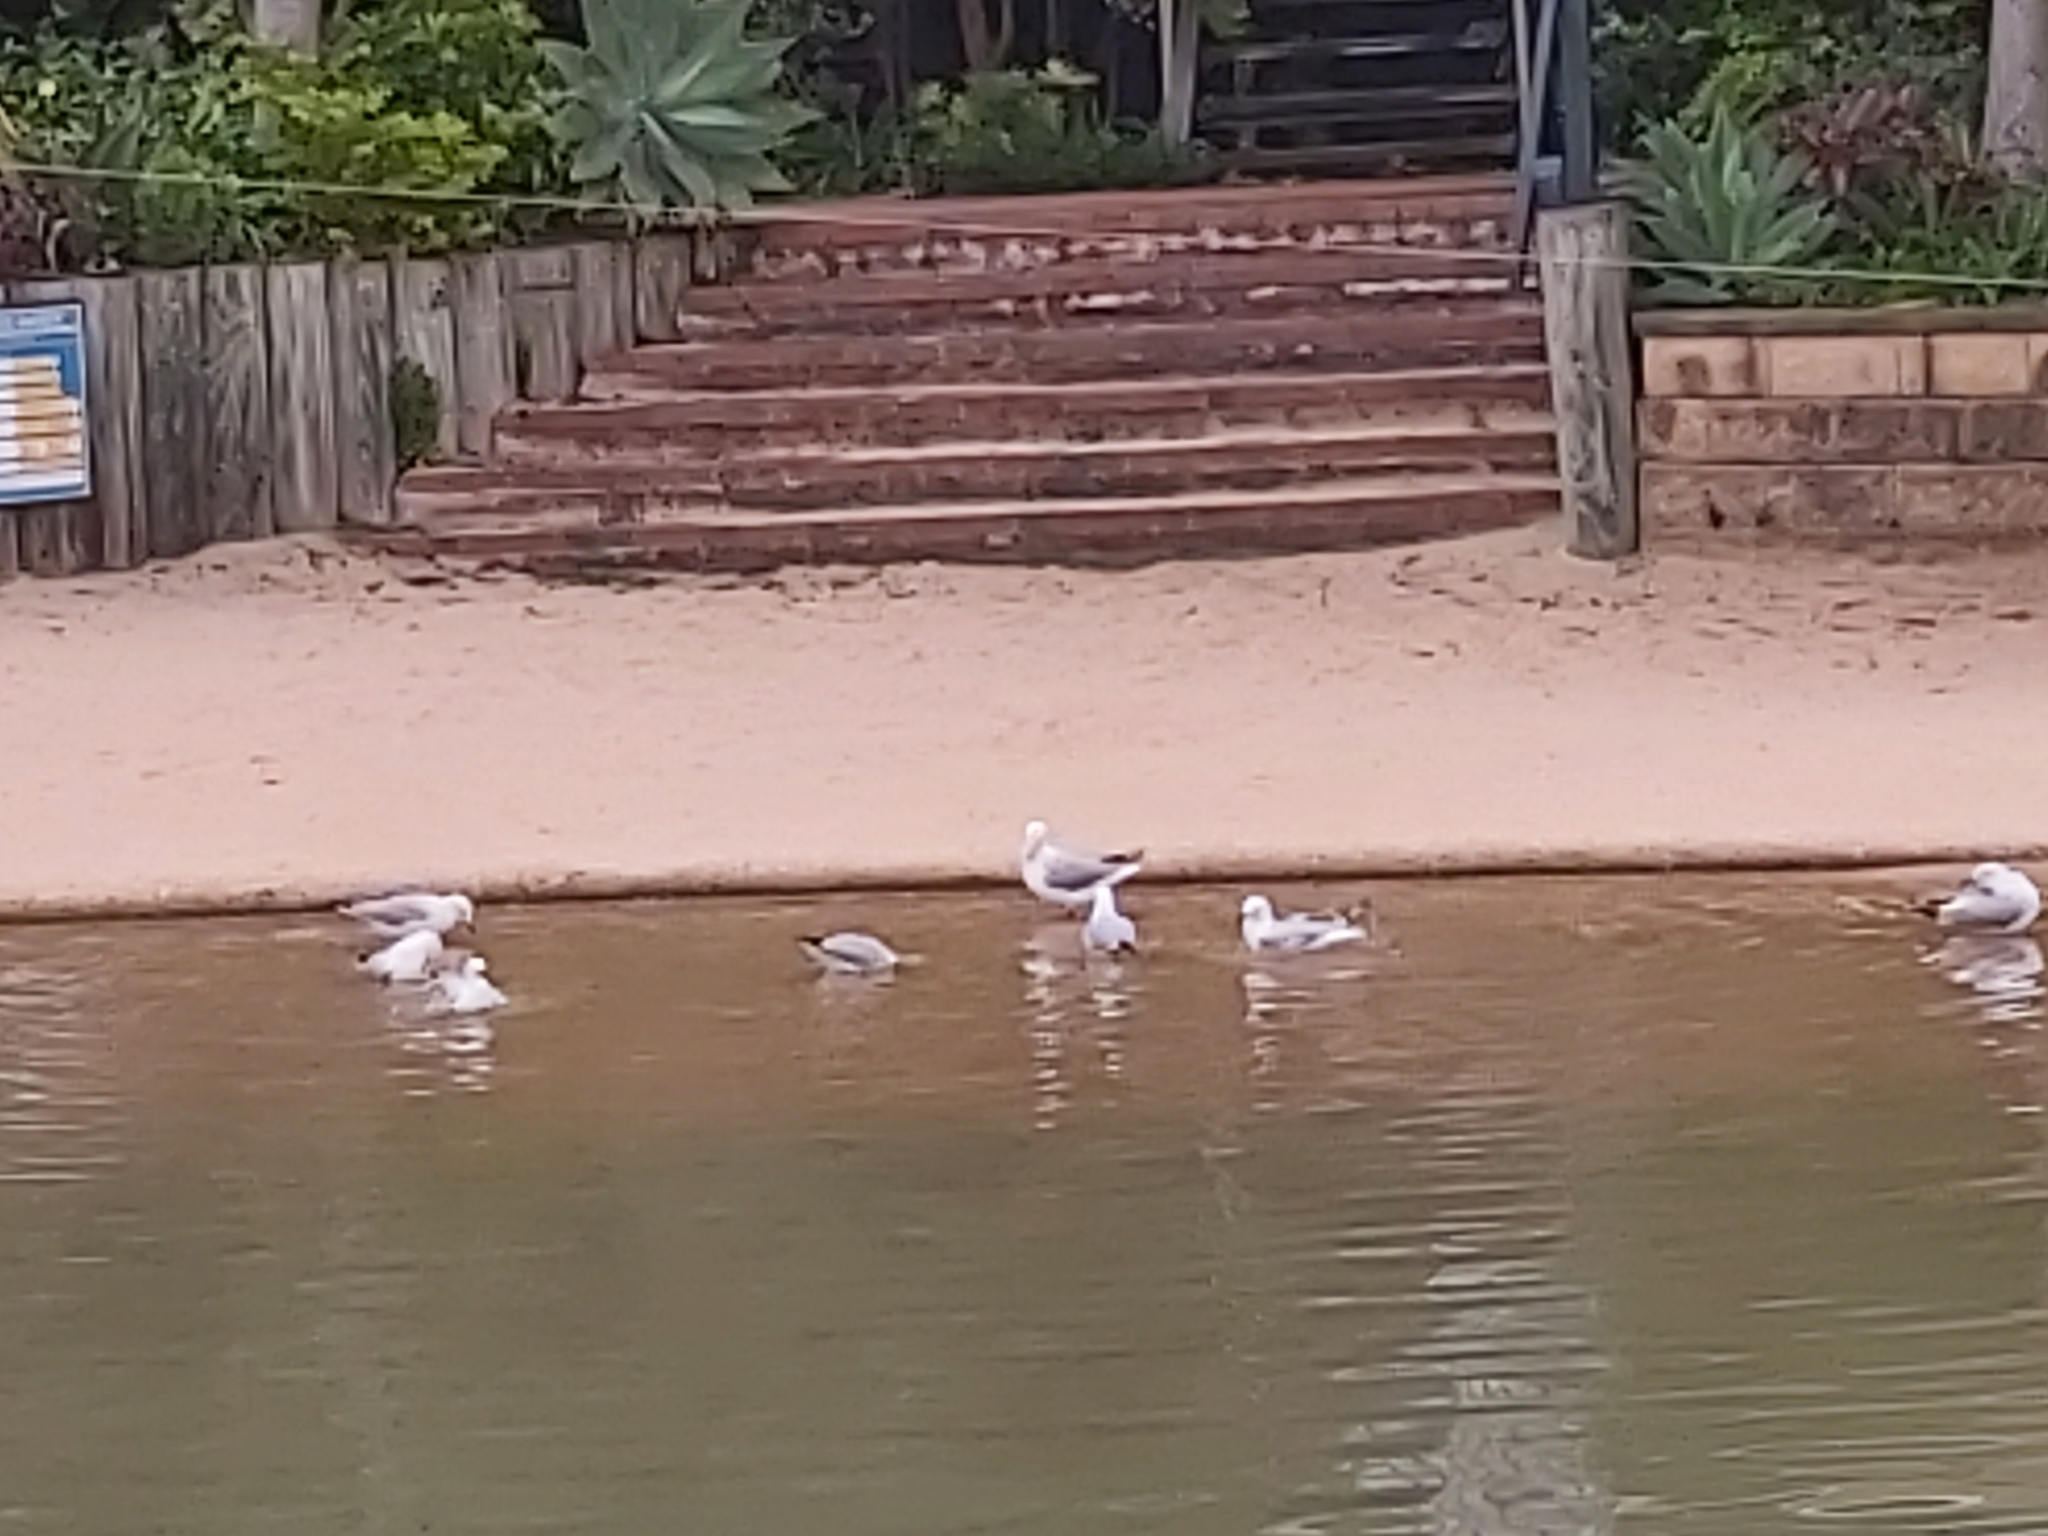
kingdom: Animalia
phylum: Chordata
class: Aves
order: Charadriiformes
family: Laridae
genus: Chroicocephalus
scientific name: Chroicocephalus novaehollandiae
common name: Silver gull
